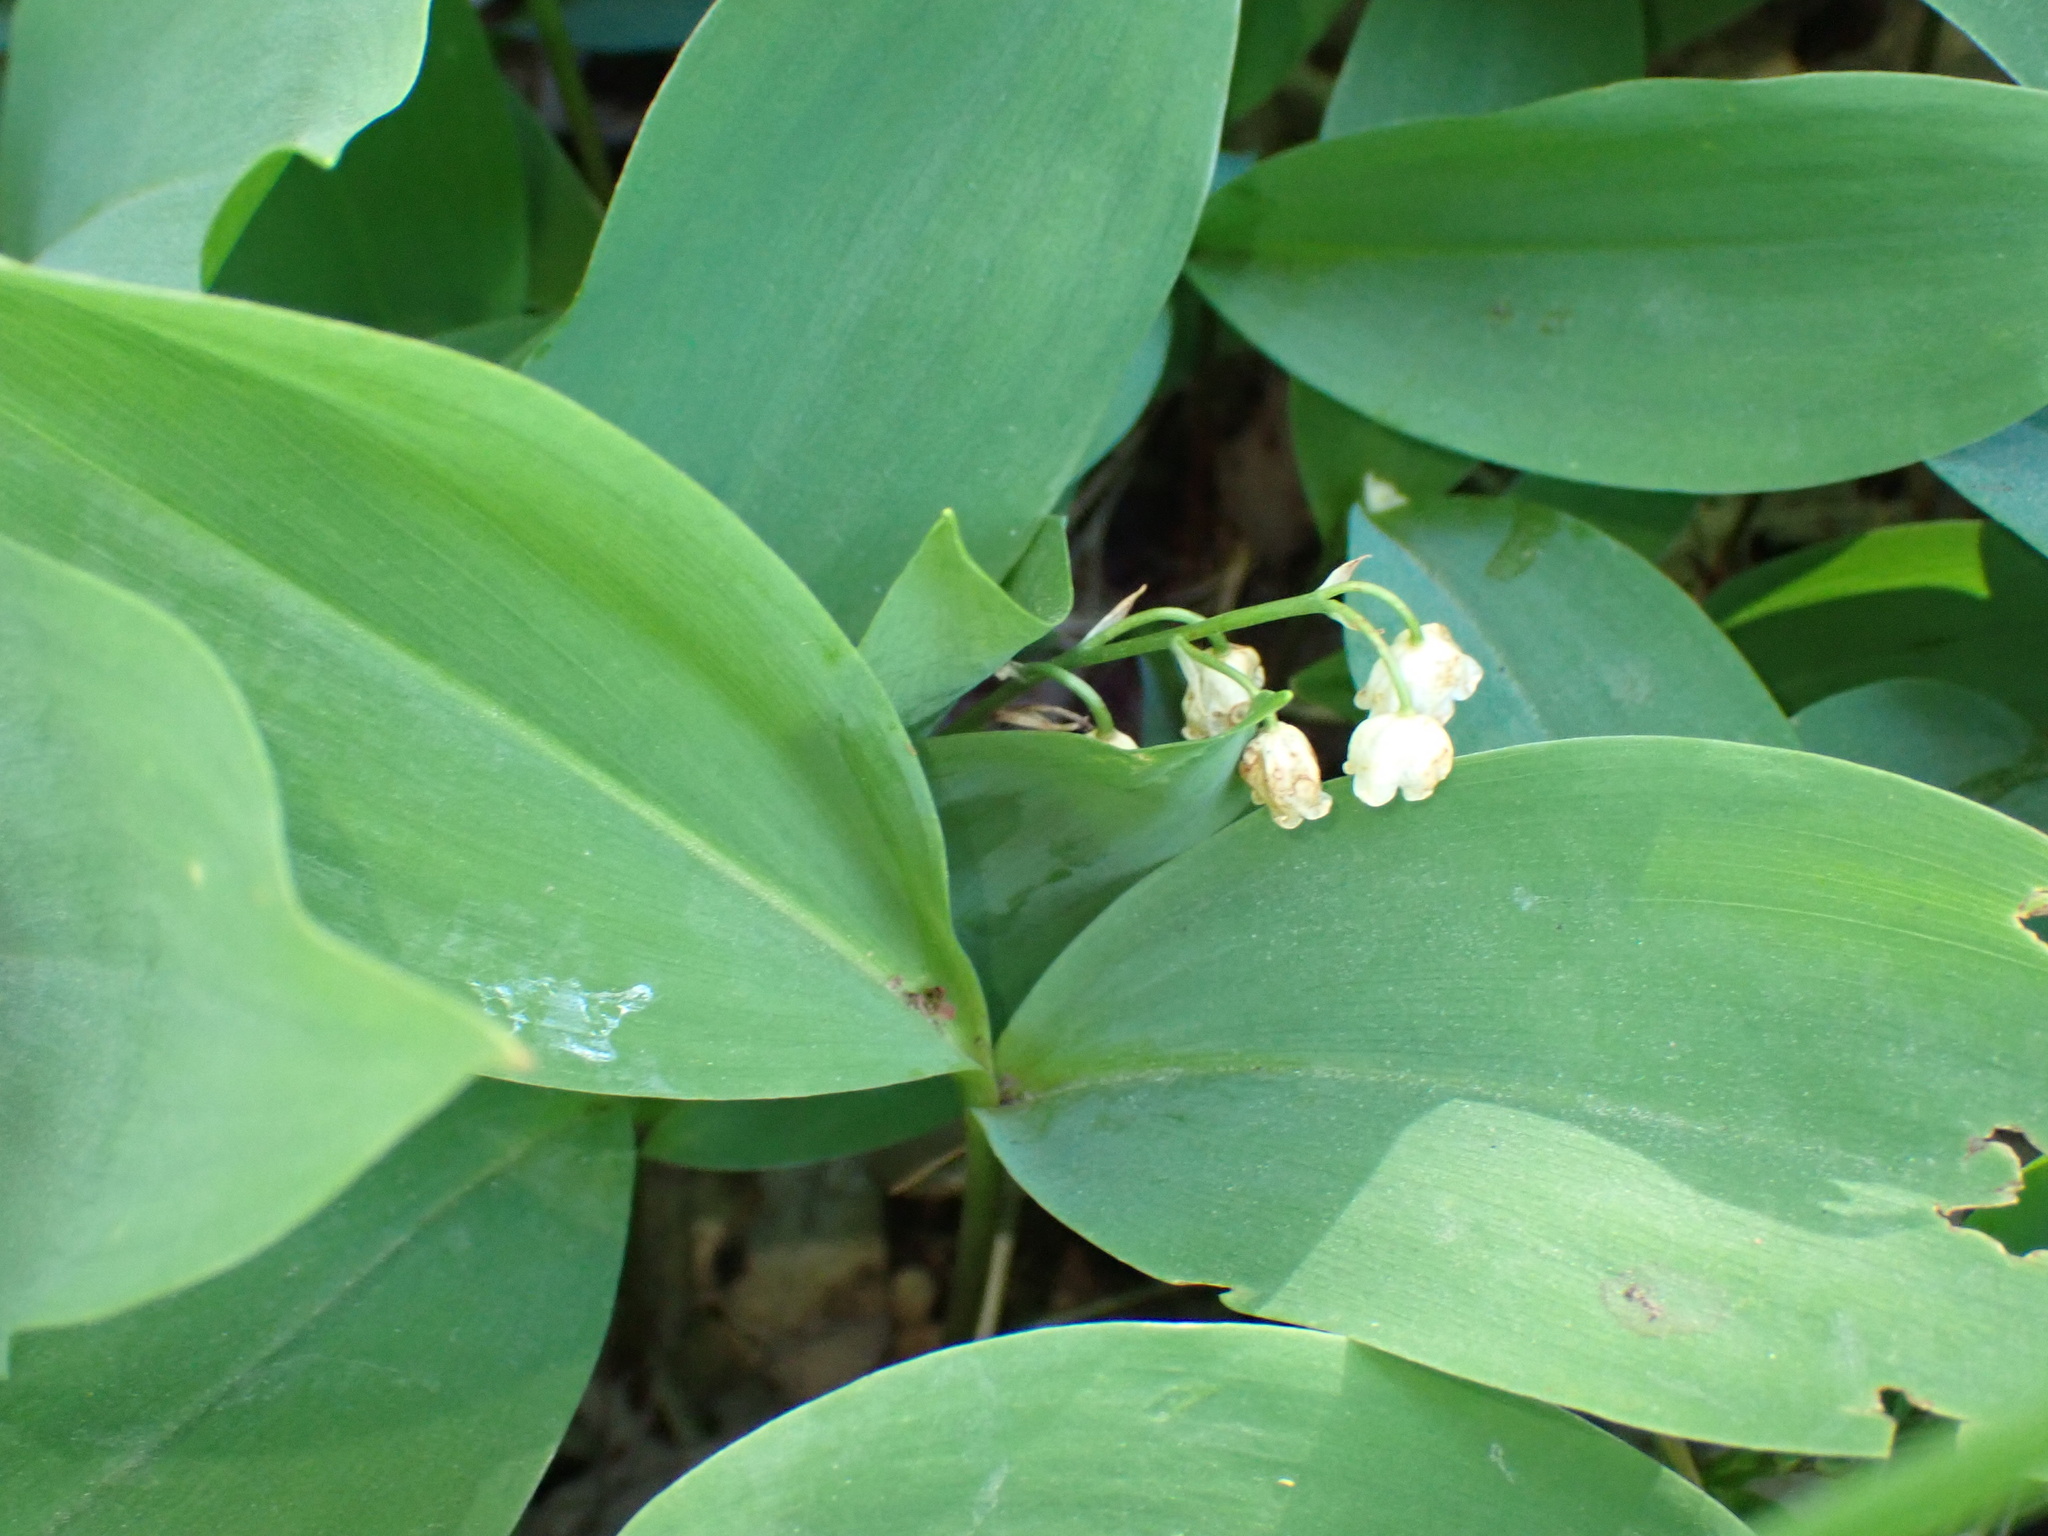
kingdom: Plantae
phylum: Tracheophyta
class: Liliopsida
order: Asparagales
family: Asparagaceae
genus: Convallaria
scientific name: Convallaria majalis
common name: Lily-of-the-valley
